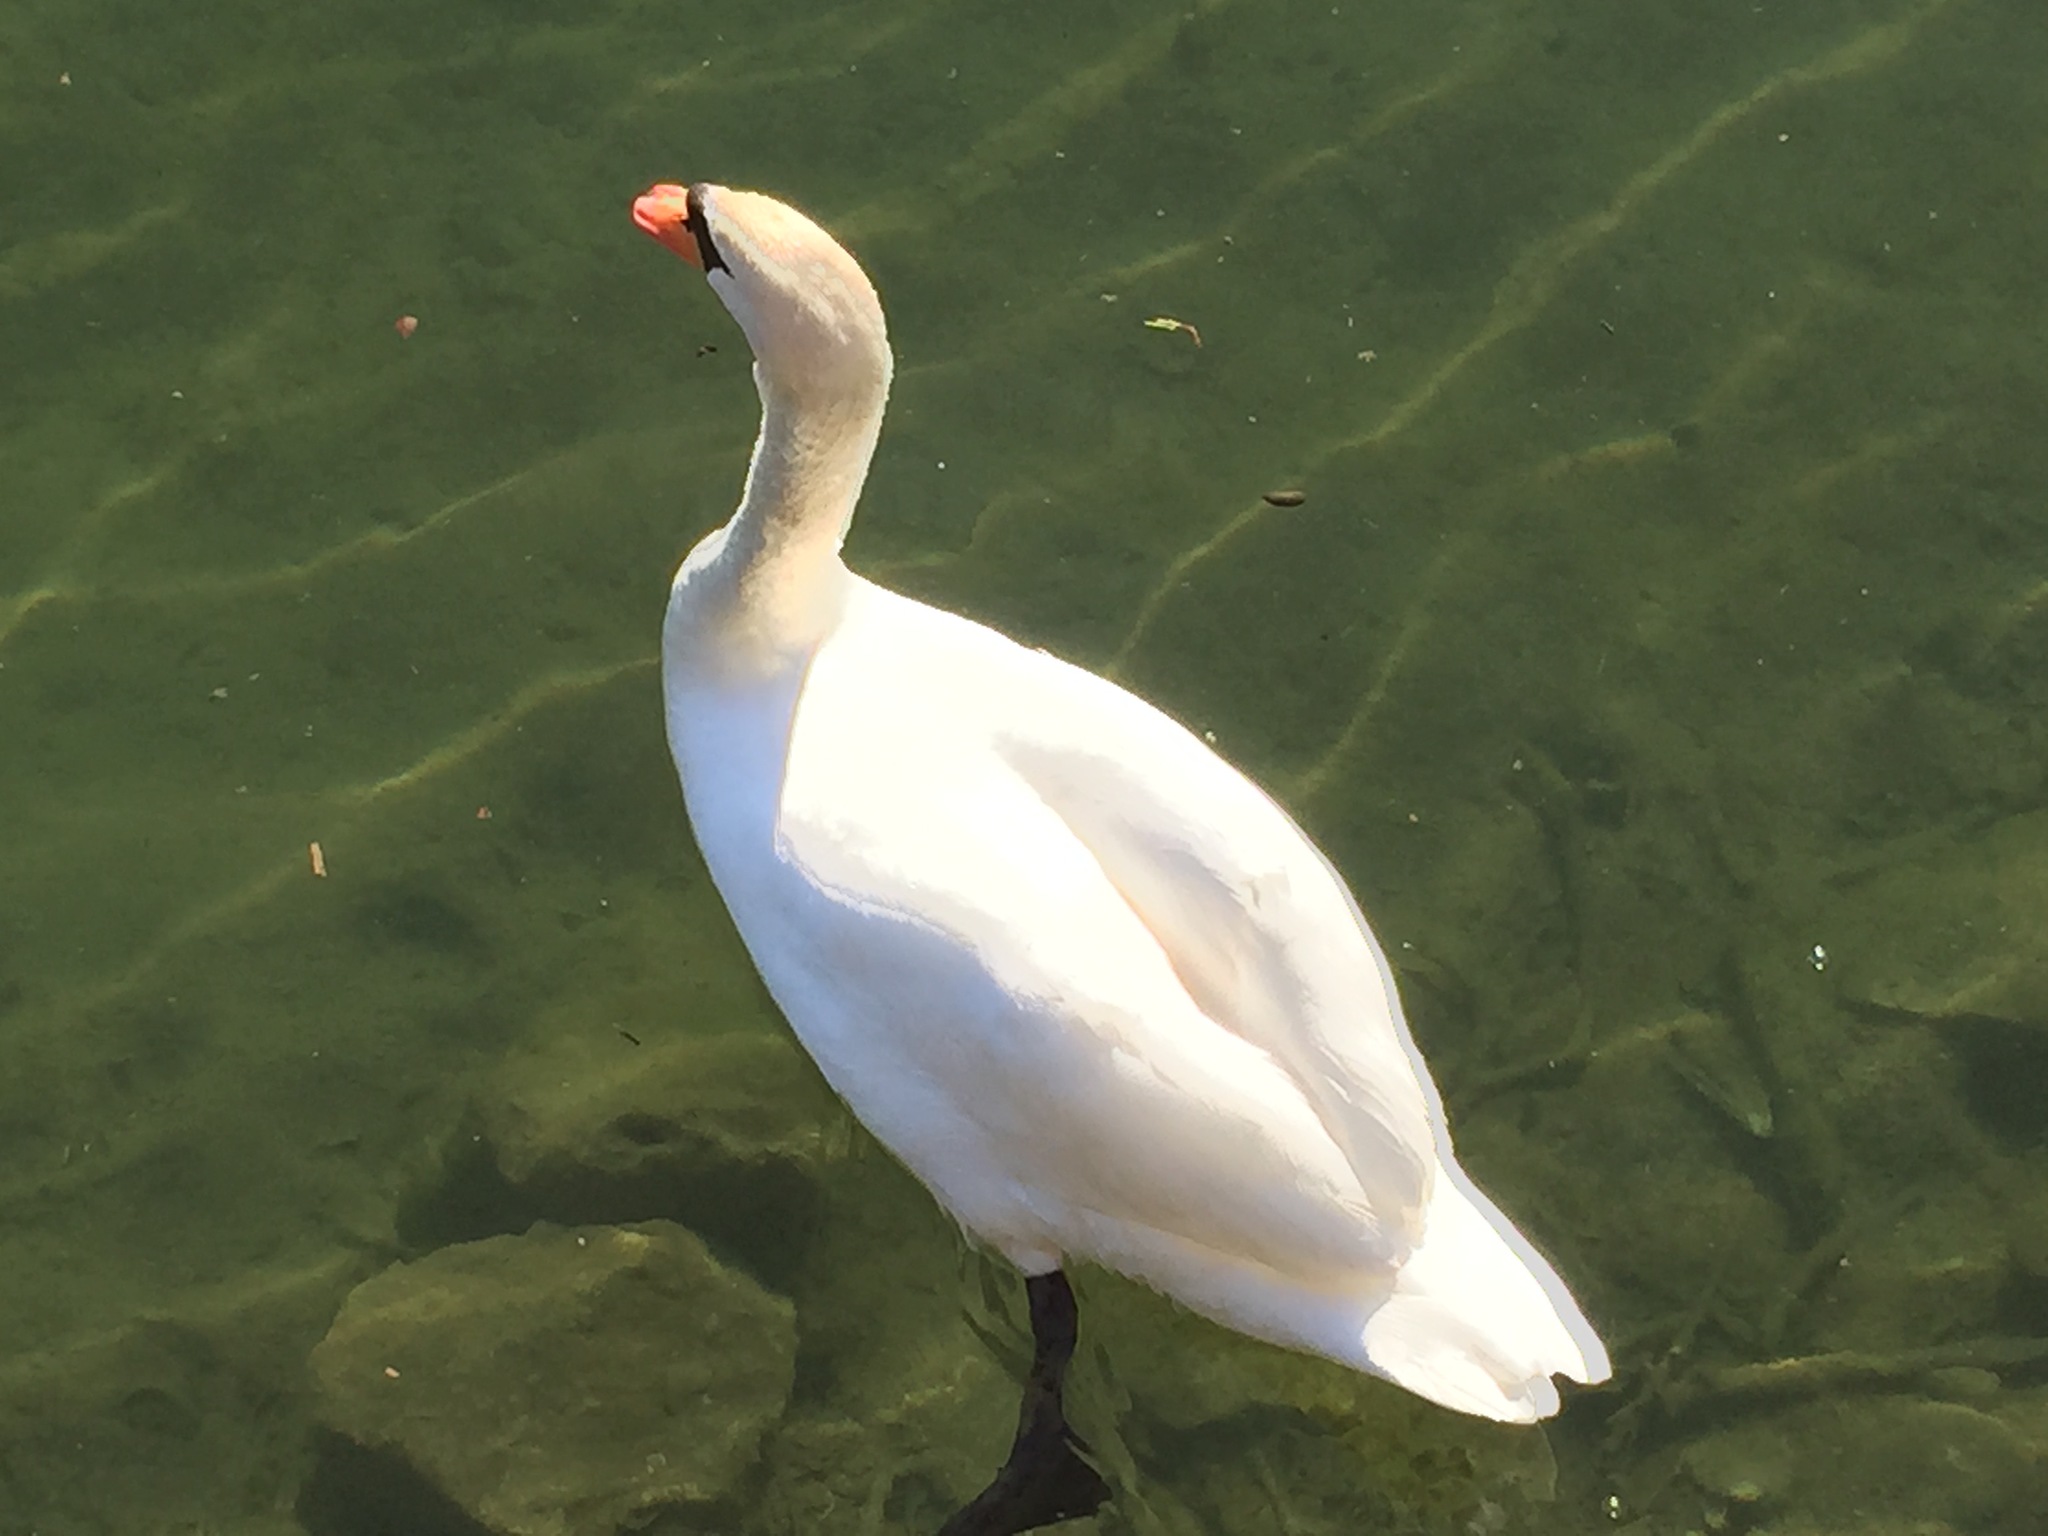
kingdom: Animalia
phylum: Chordata
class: Aves
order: Anseriformes
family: Anatidae
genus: Cygnus
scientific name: Cygnus olor
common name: Mute swan
